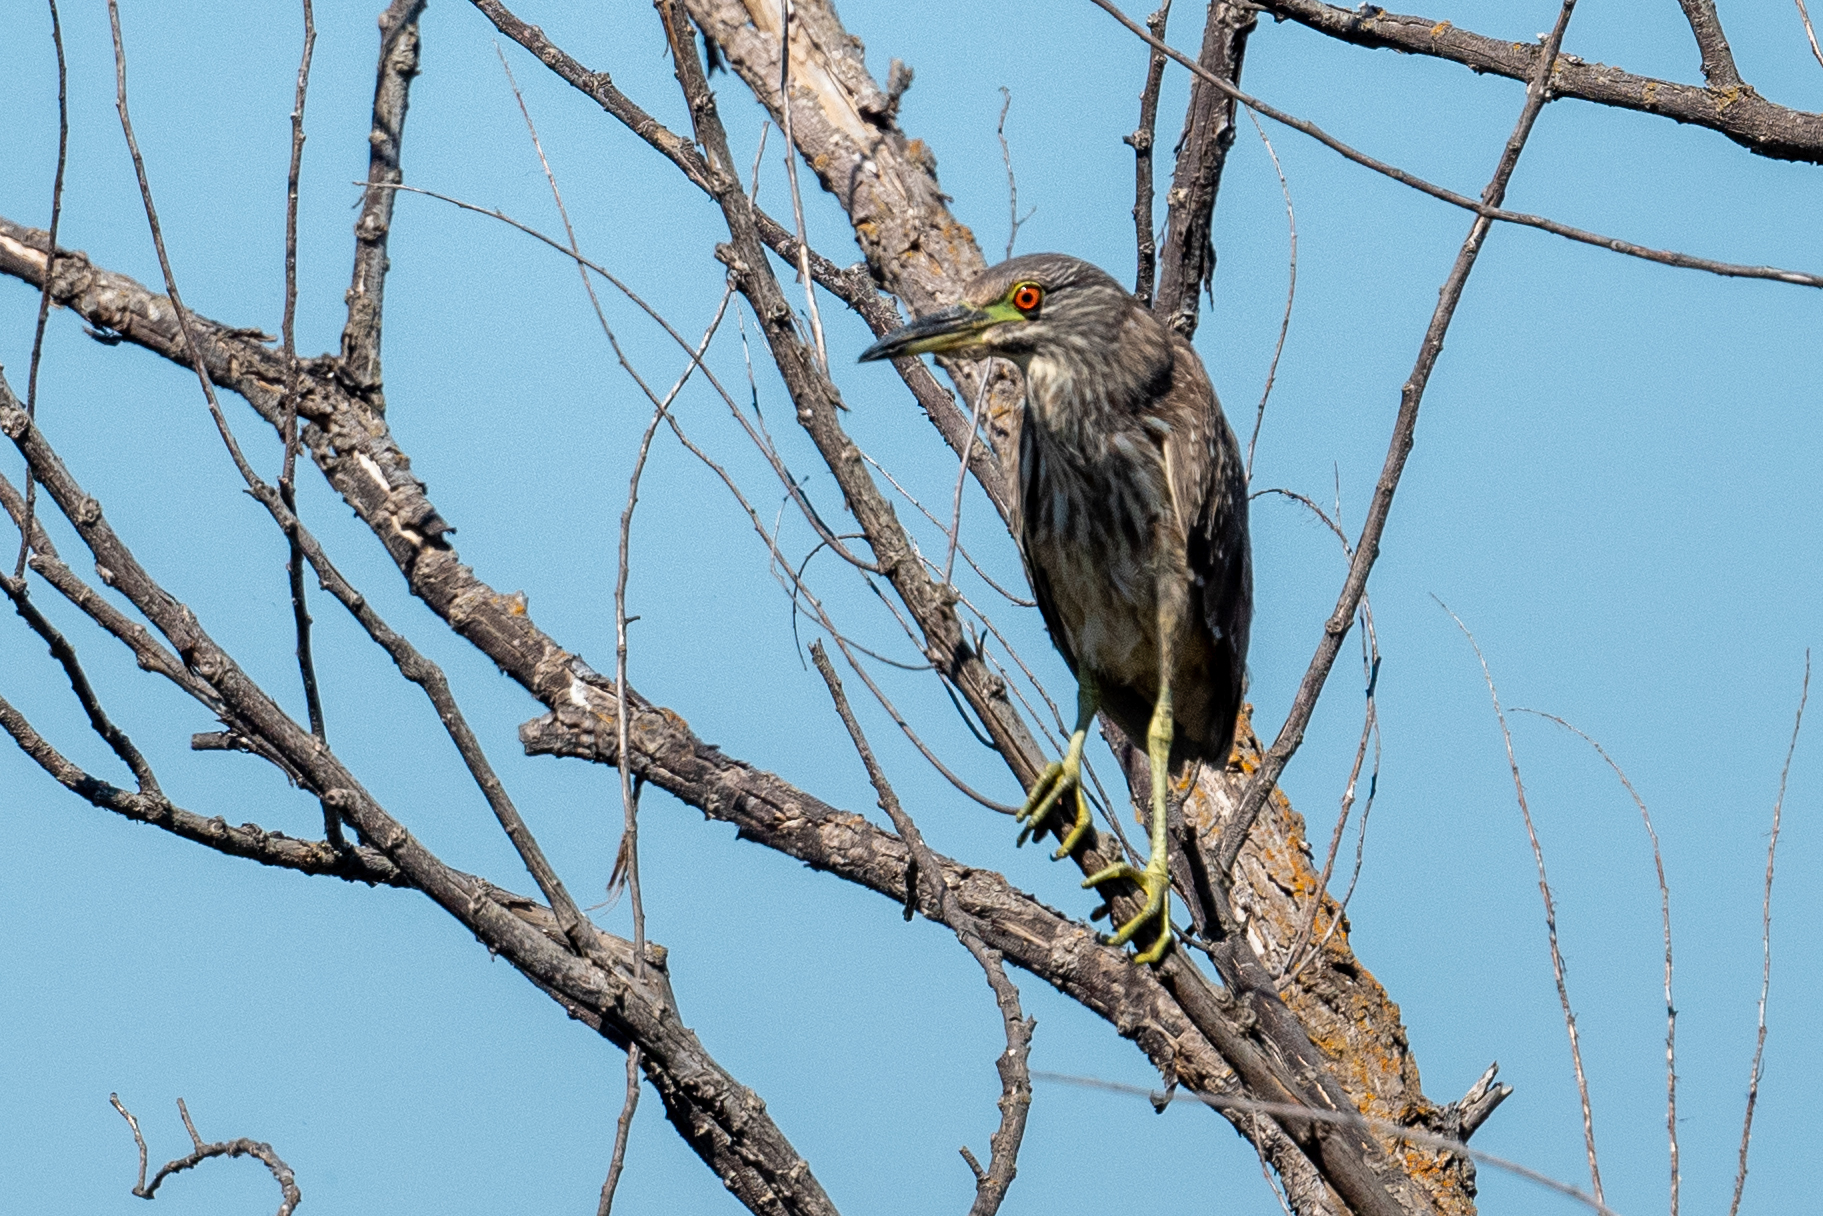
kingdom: Animalia
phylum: Chordata
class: Aves
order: Pelecaniformes
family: Ardeidae
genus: Nycticorax
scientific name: Nycticorax nycticorax
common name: Black-crowned night heron
